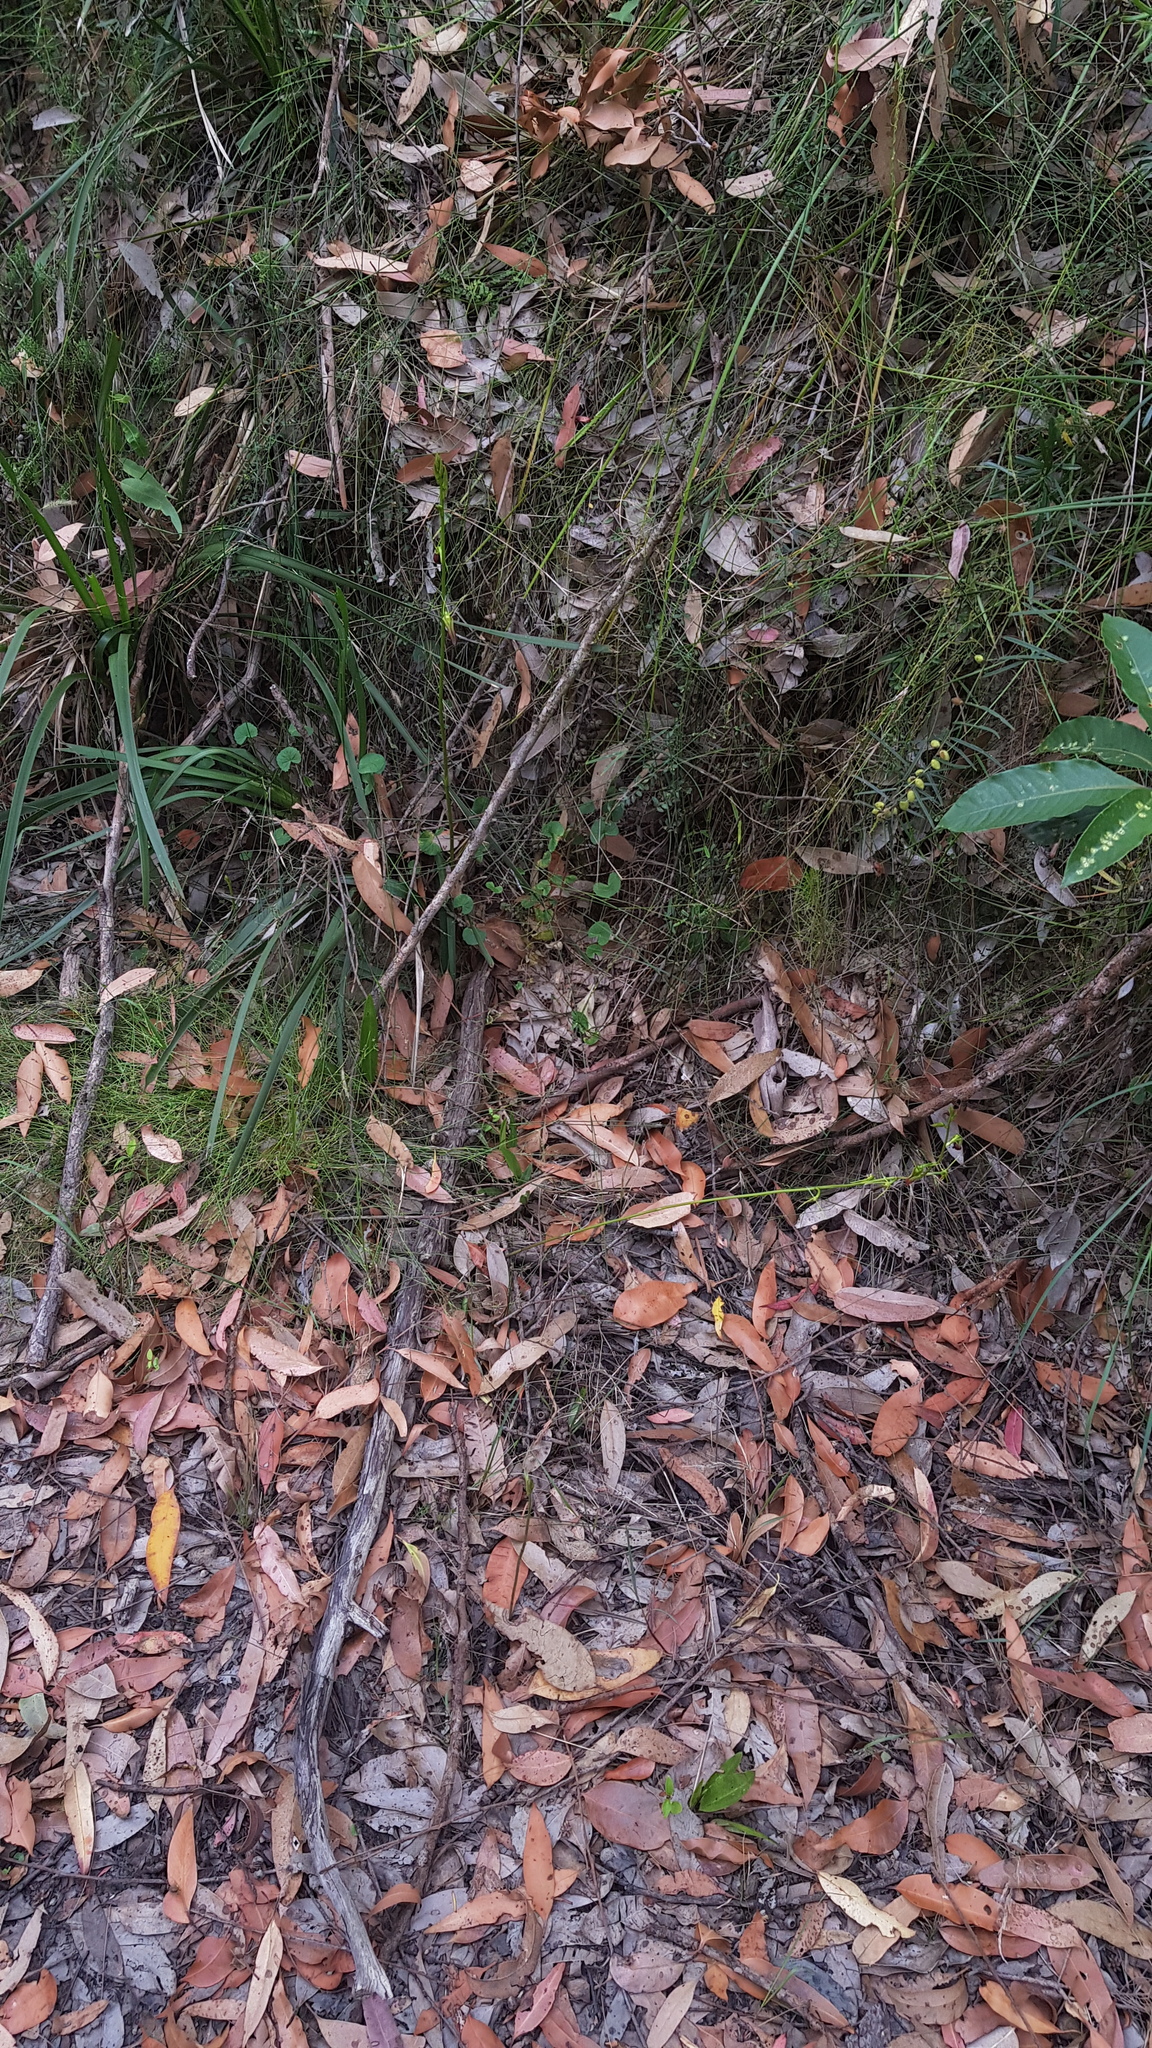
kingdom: Plantae
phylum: Tracheophyta
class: Liliopsida
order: Asparagales
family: Orchidaceae
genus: Cryptostylis
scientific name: Cryptostylis subulata
